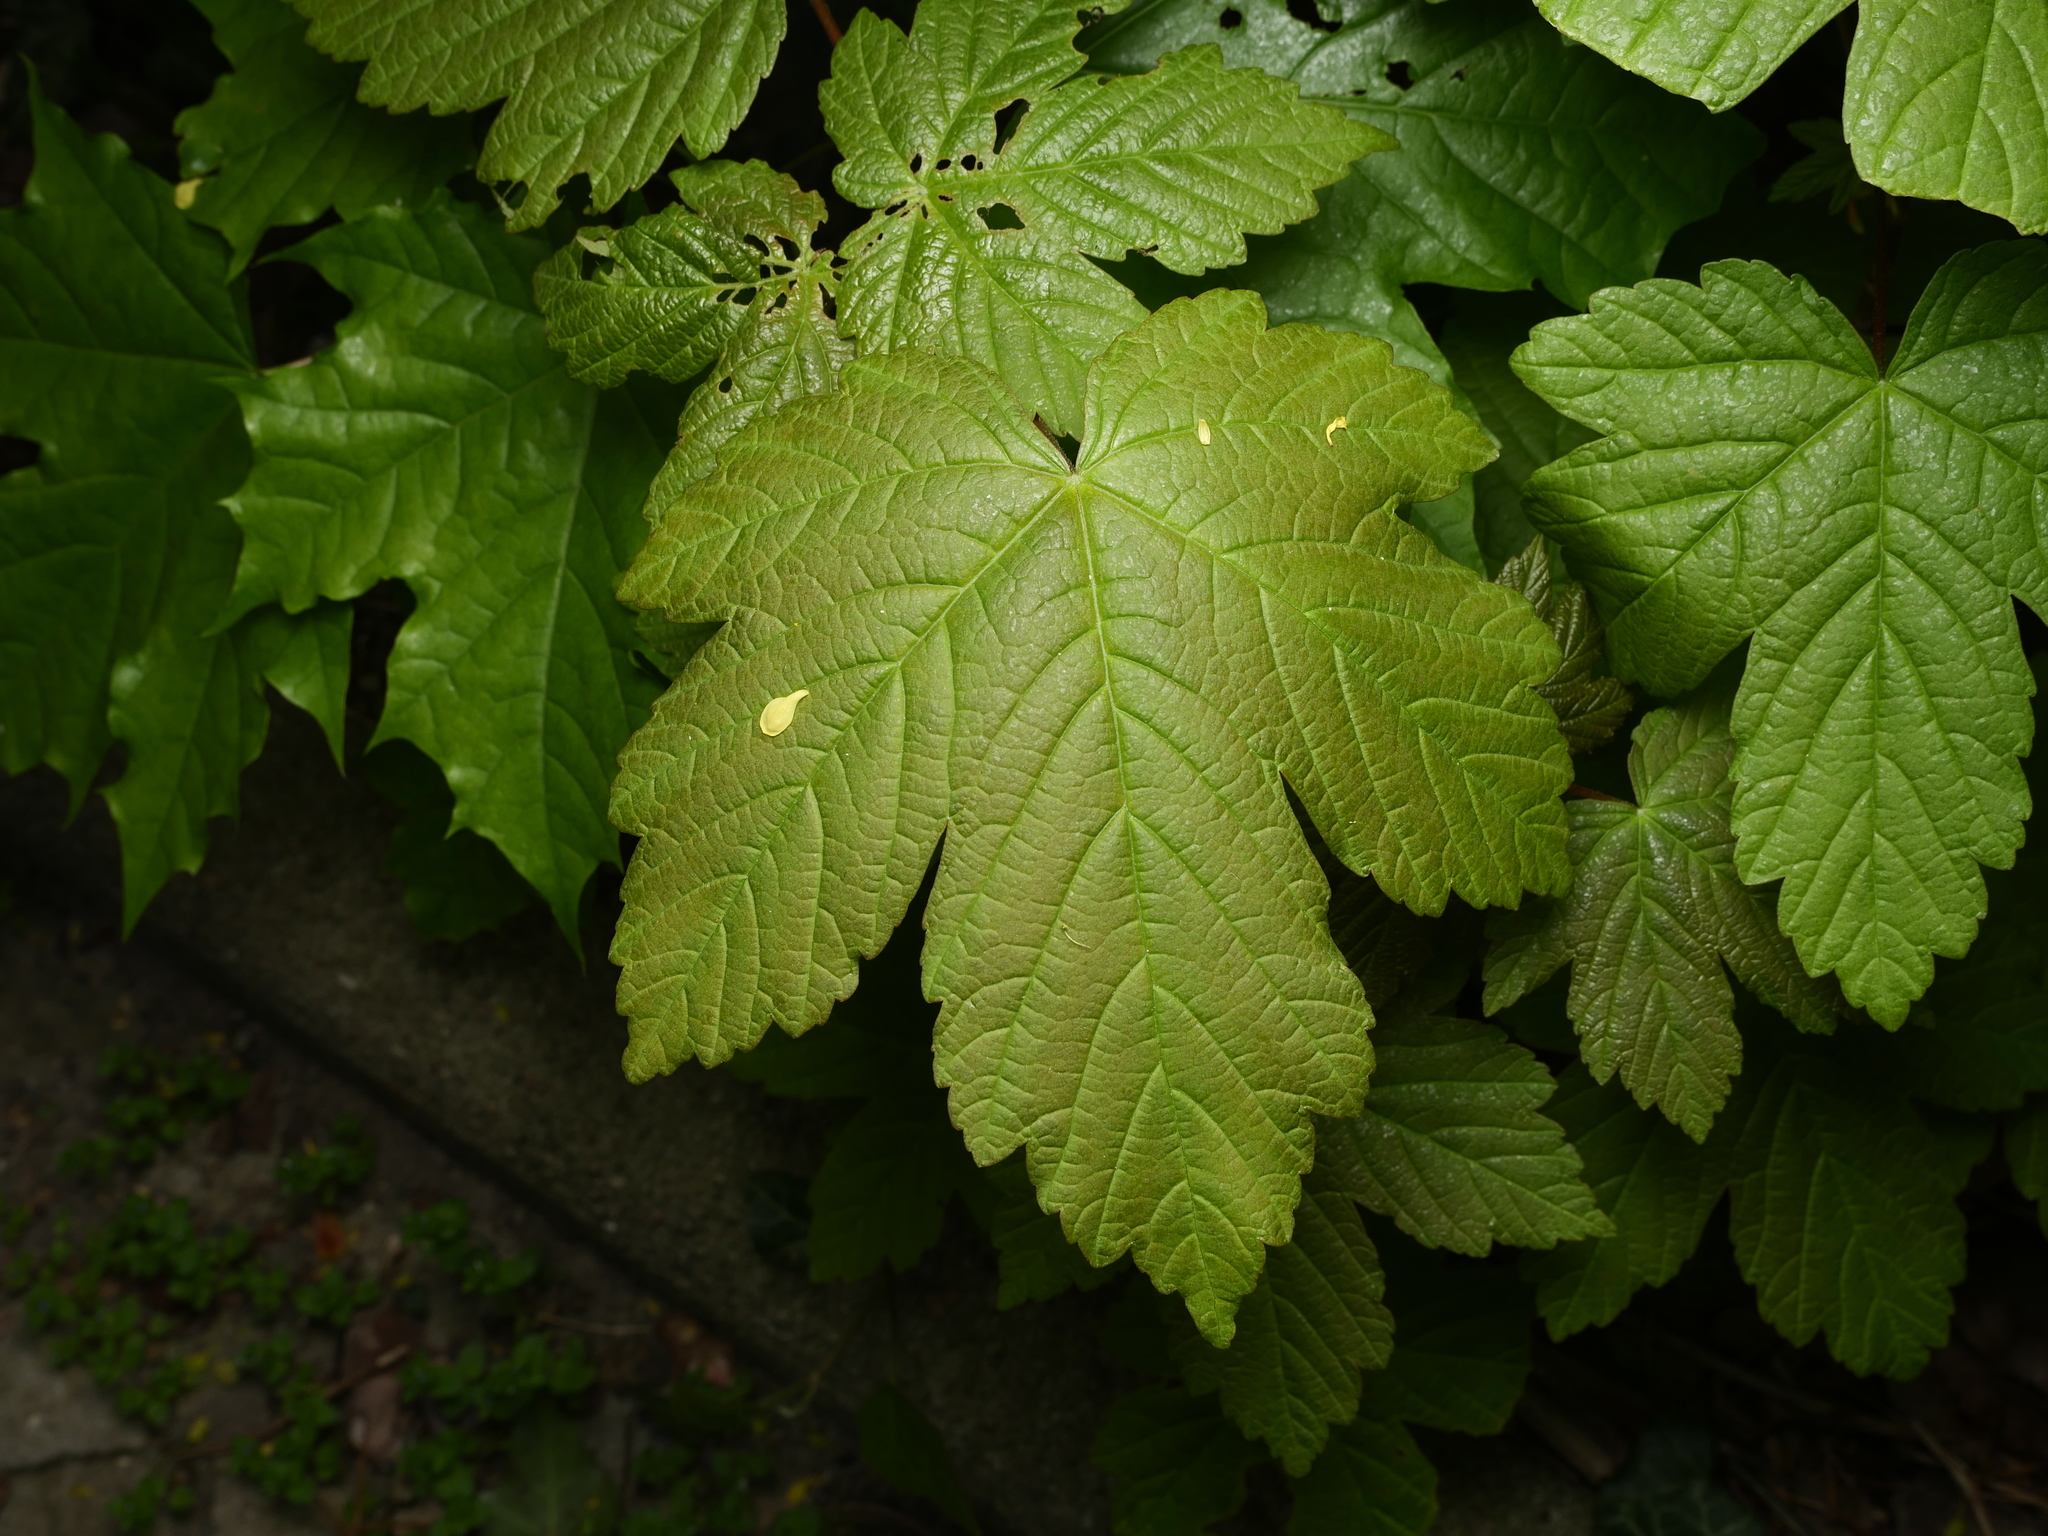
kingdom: Plantae
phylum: Tracheophyta
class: Magnoliopsida
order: Sapindales
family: Sapindaceae
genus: Acer
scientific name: Acer pseudoplatanus
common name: Sycamore
